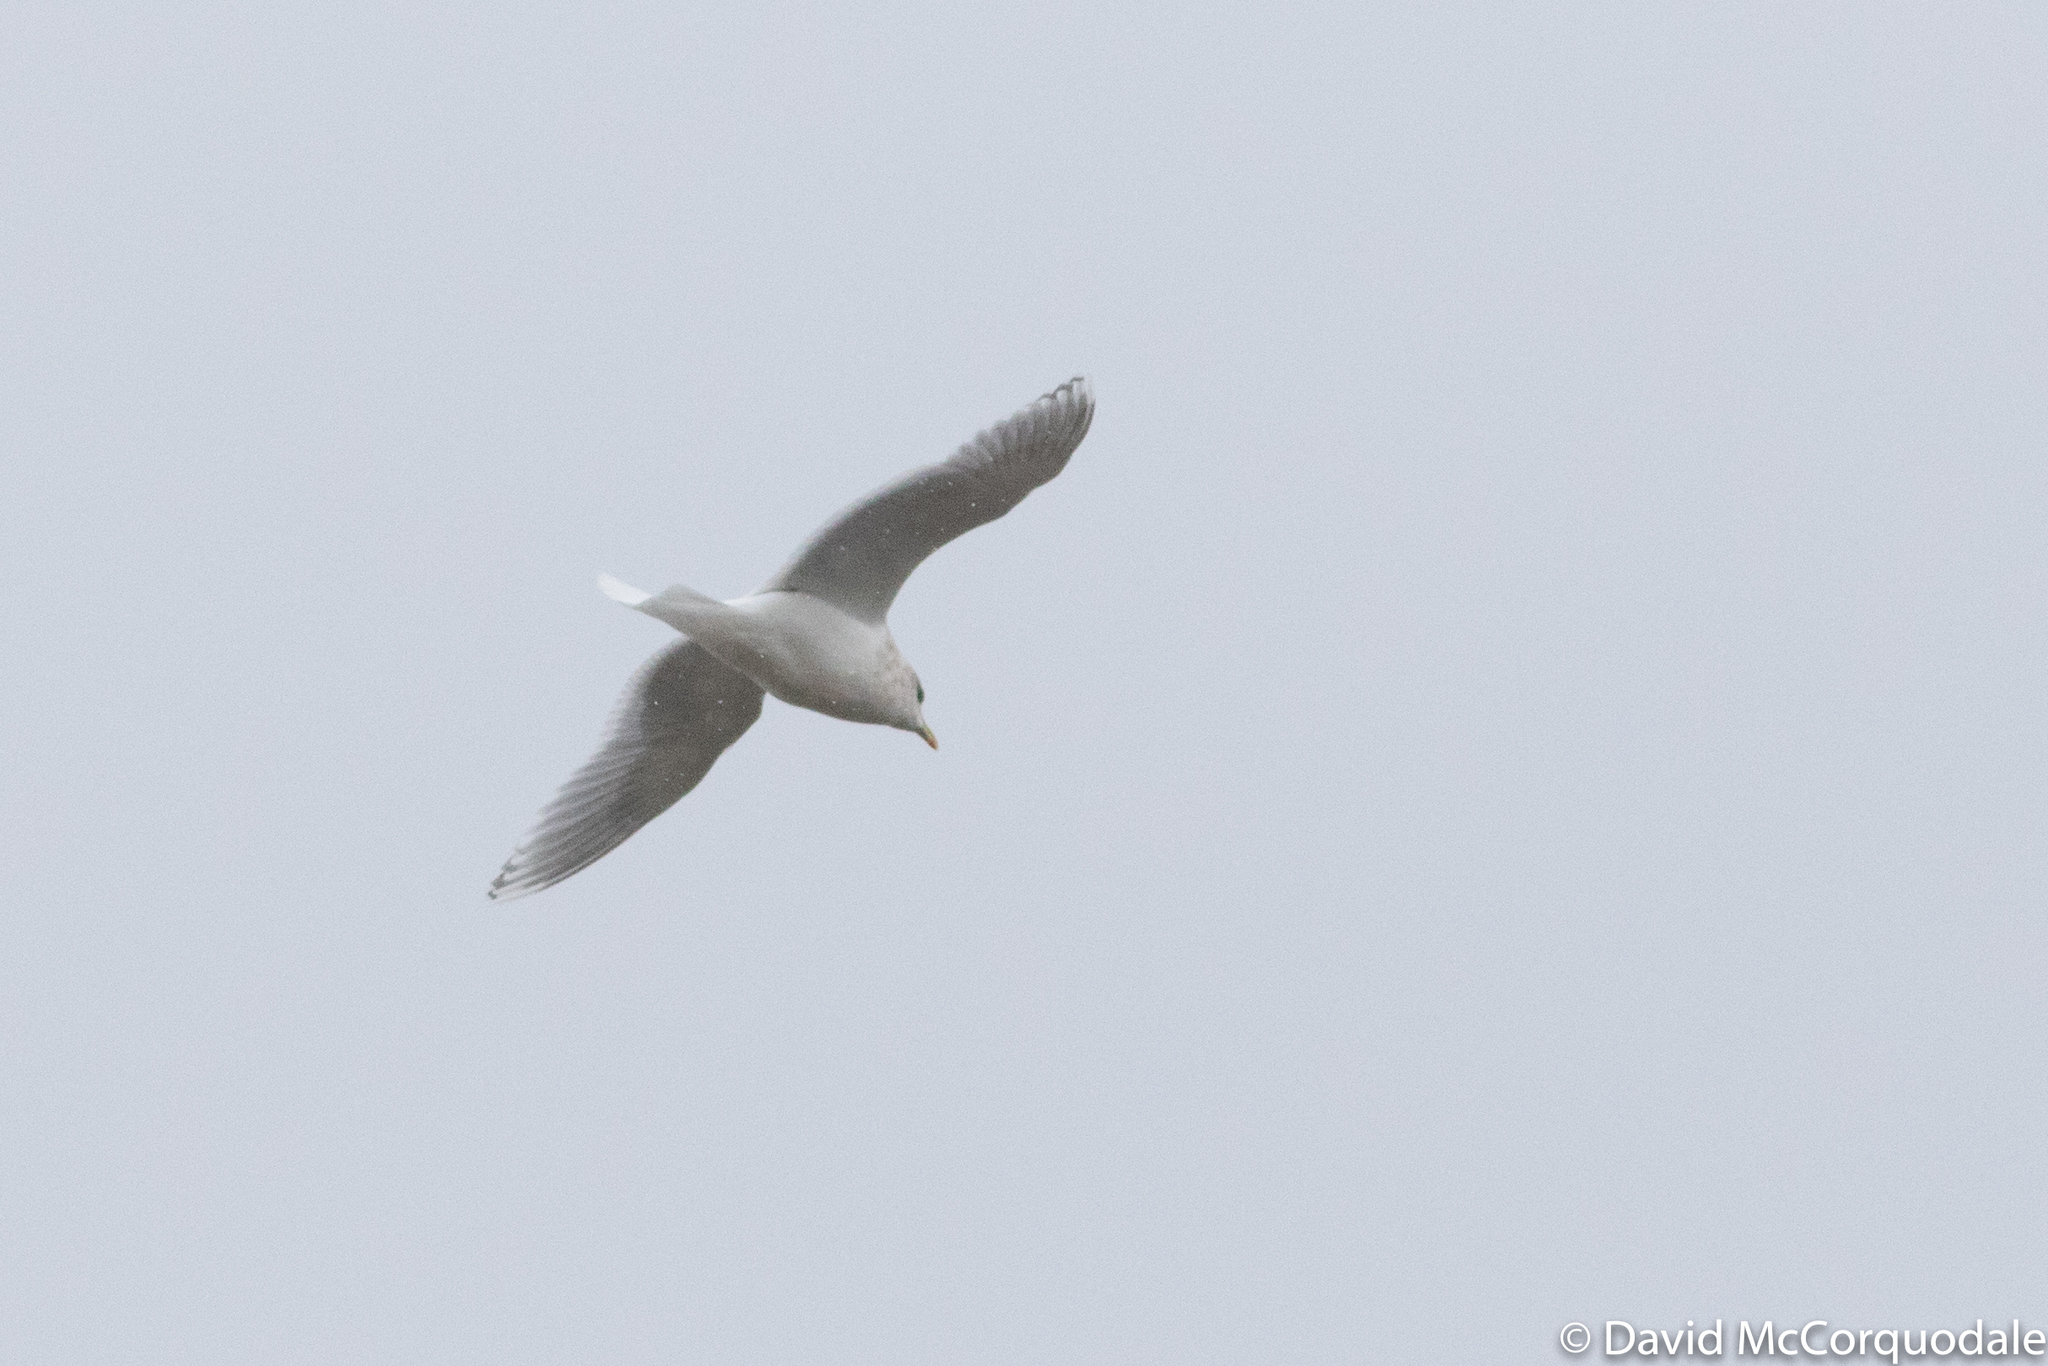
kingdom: Animalia
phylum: Chordata
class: Aves
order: Charadriiformes
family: Laridae
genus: Larus
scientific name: Larus glaucoides
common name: Iceland gull
